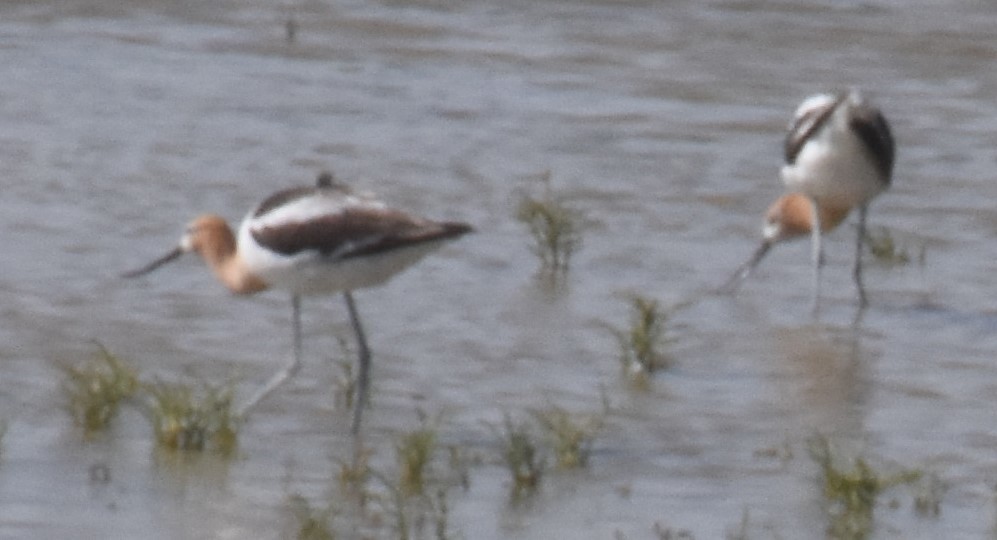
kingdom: Animalia
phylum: Chordata
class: Aves
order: Charadriiformes
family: Recurvirostridae
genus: Recurvirostra
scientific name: Recurvirostra americana
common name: American avocet
